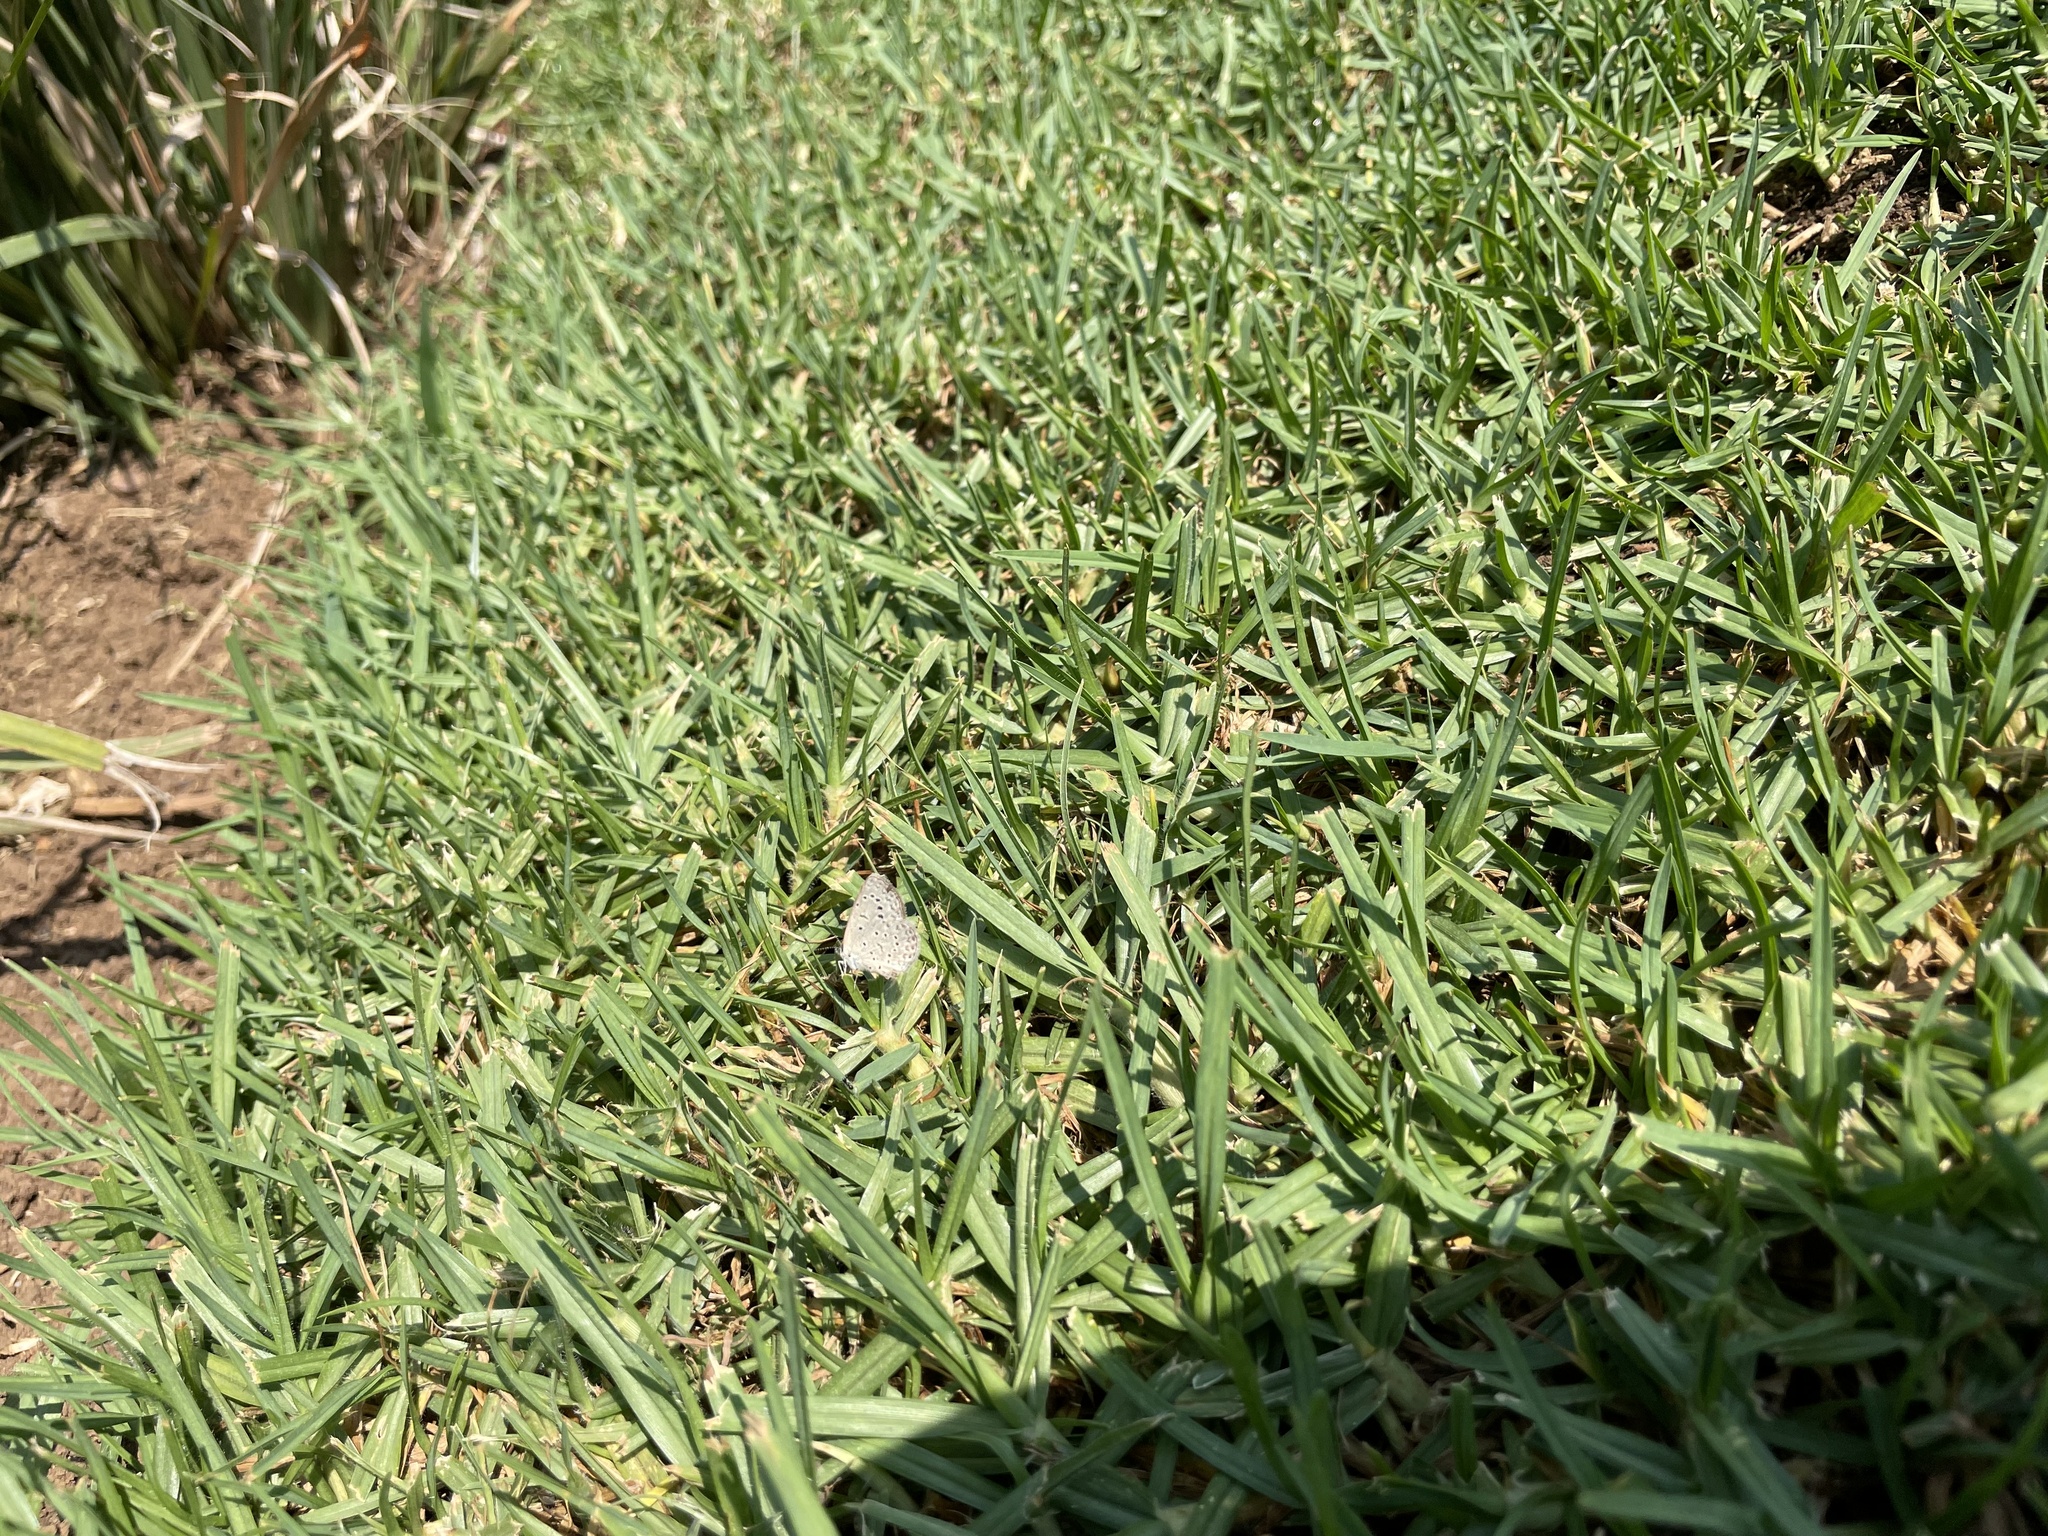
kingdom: Animalia
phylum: Arthropoda
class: Insecta
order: Lepidoptera
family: Lycaenidae
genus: Zizeeria
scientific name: Zizeeria knysna
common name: African grass blue
